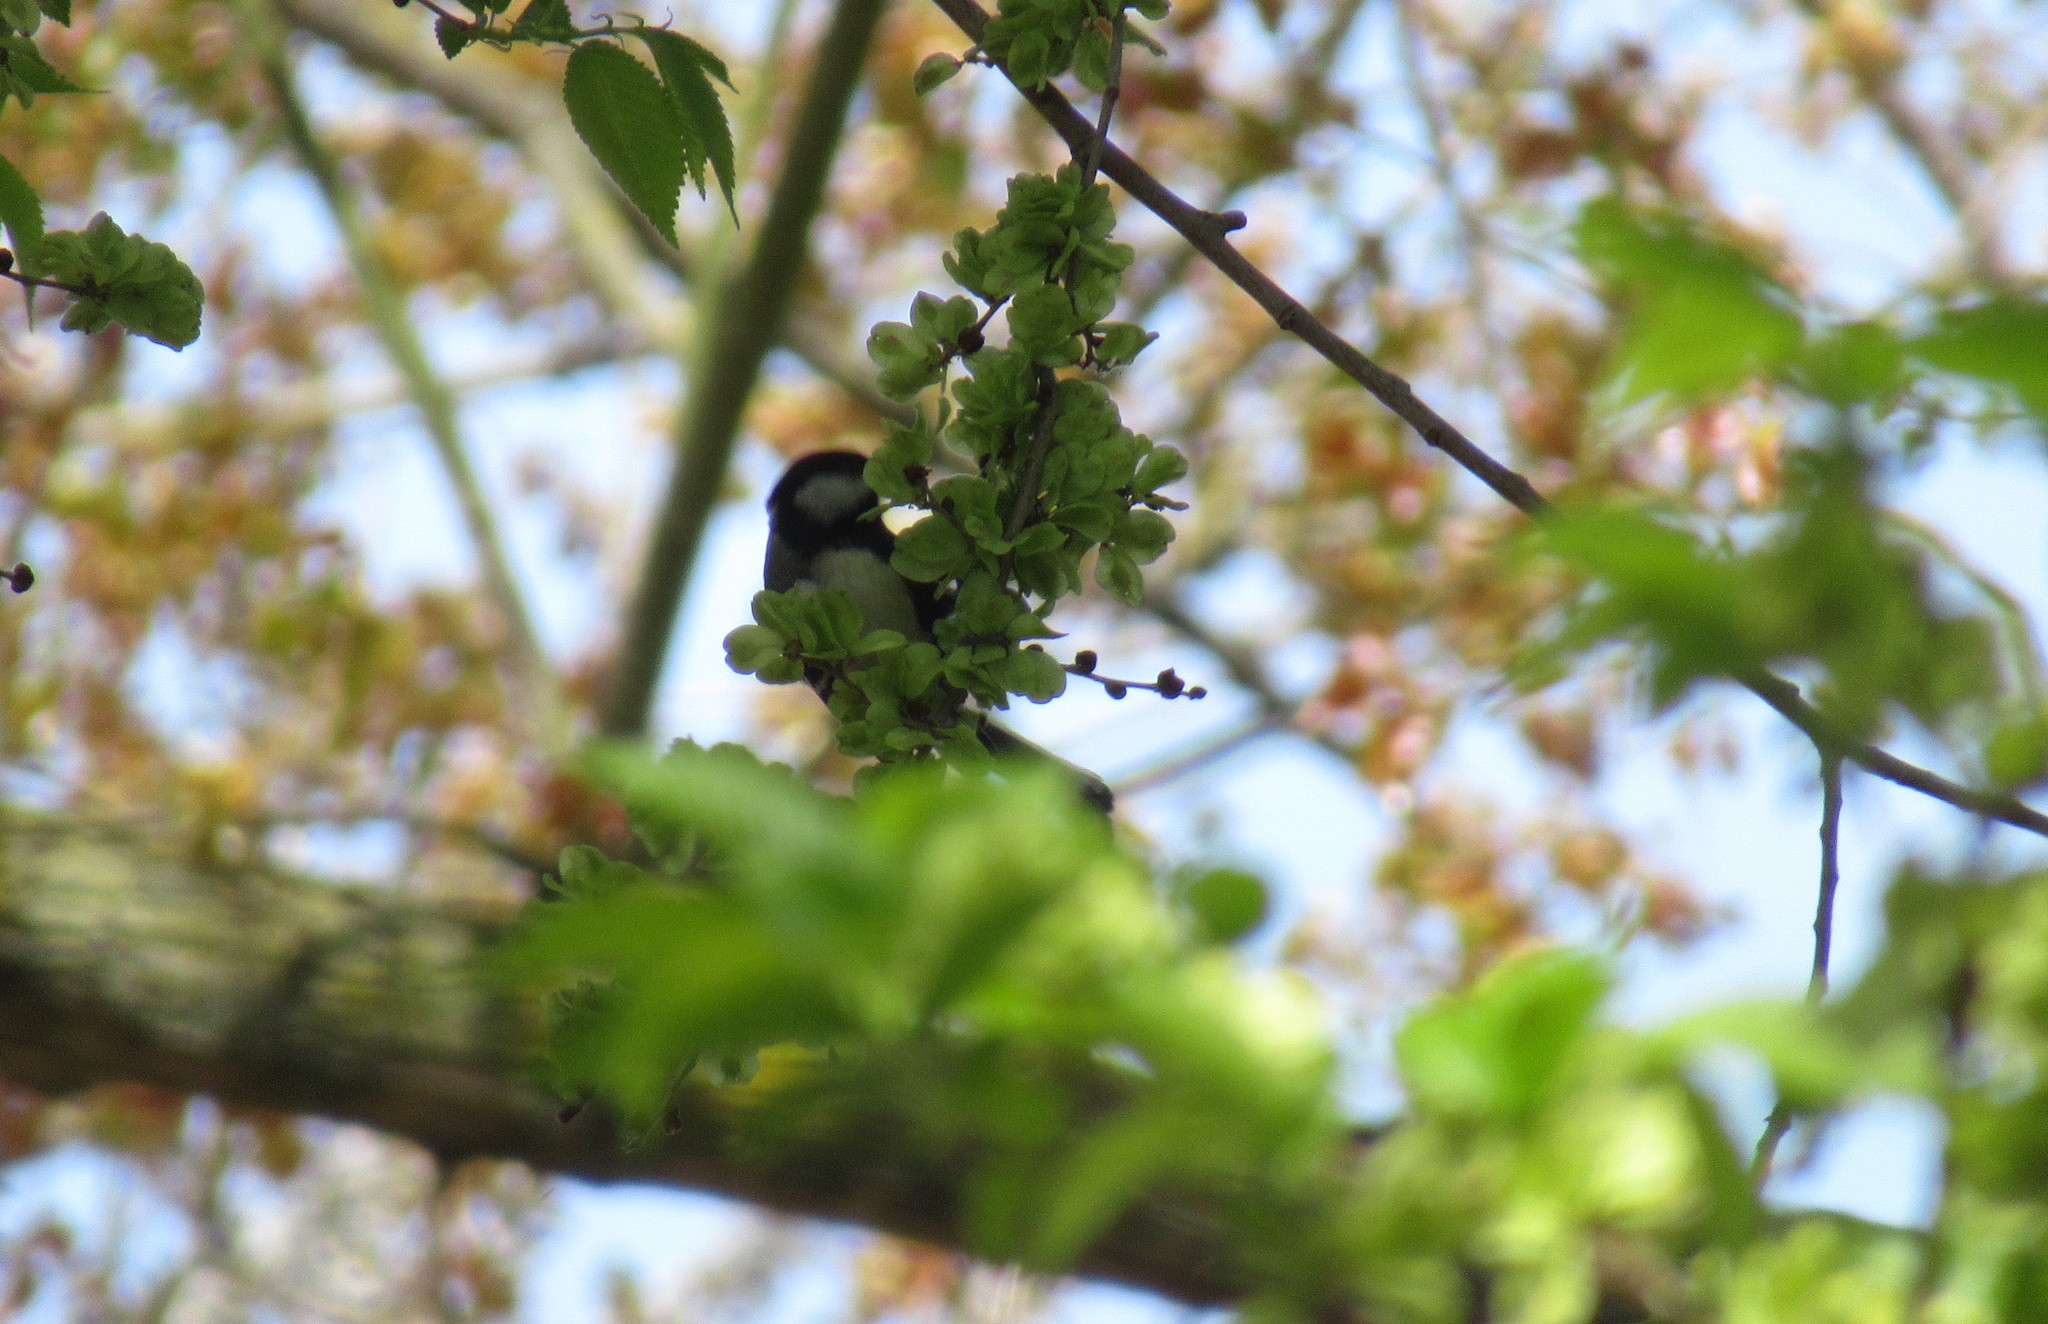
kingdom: Animalia
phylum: Chordata
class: Aves
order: Passeriformes
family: Paridae
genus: Parus
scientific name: Parus major
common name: Great tit
